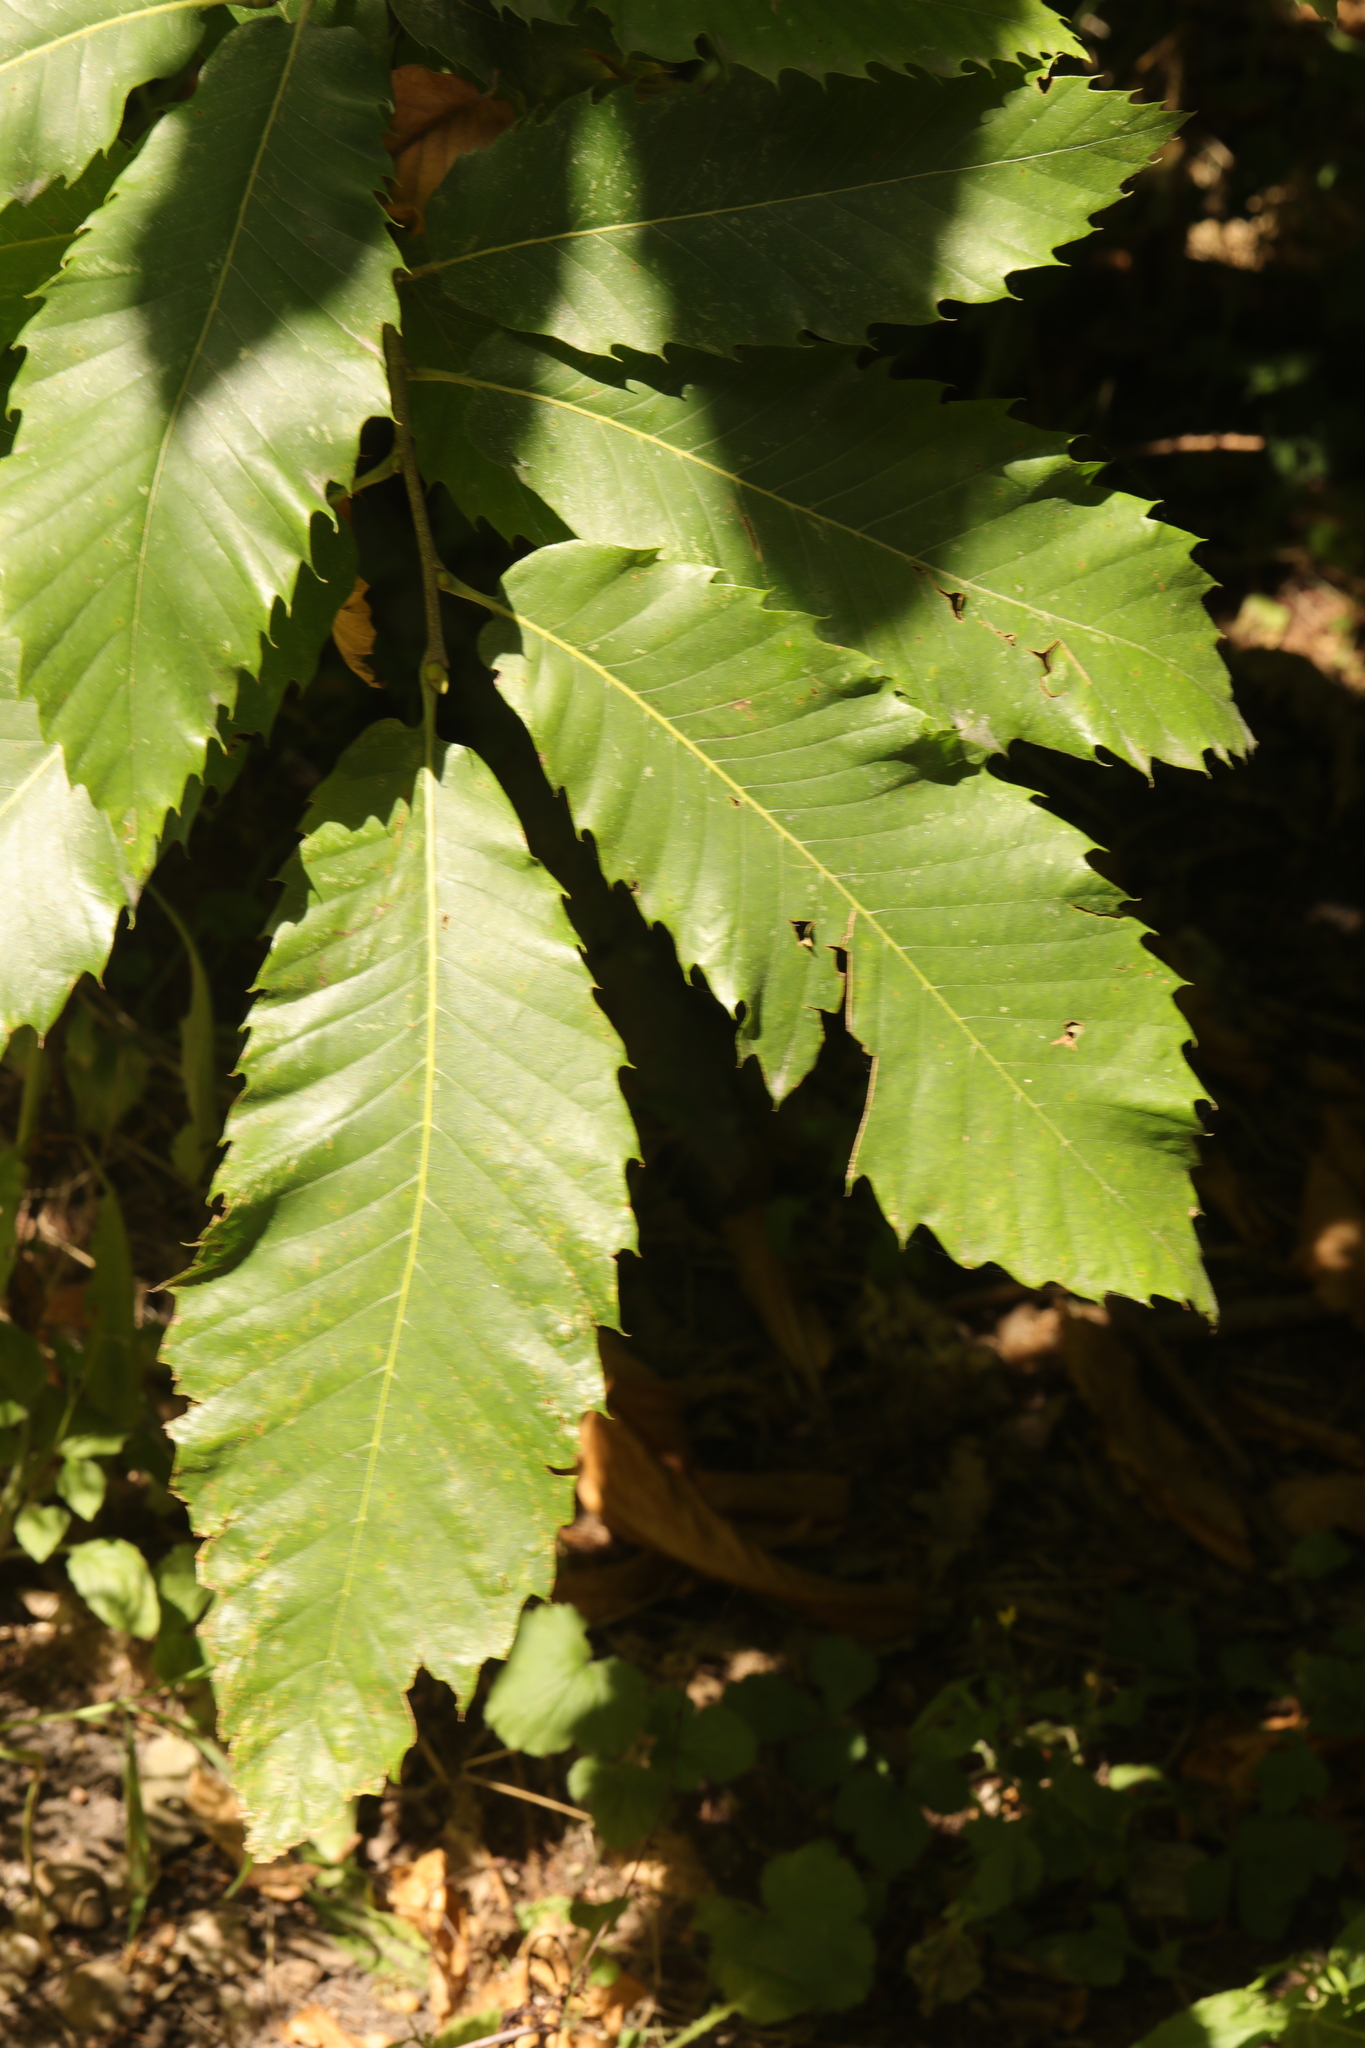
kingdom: Plantae
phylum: Tracheophyta
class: Magnoliopsida
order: Fagales
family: Fagaceae
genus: Castanea
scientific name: Castanea sativa
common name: Sweet chestnut
